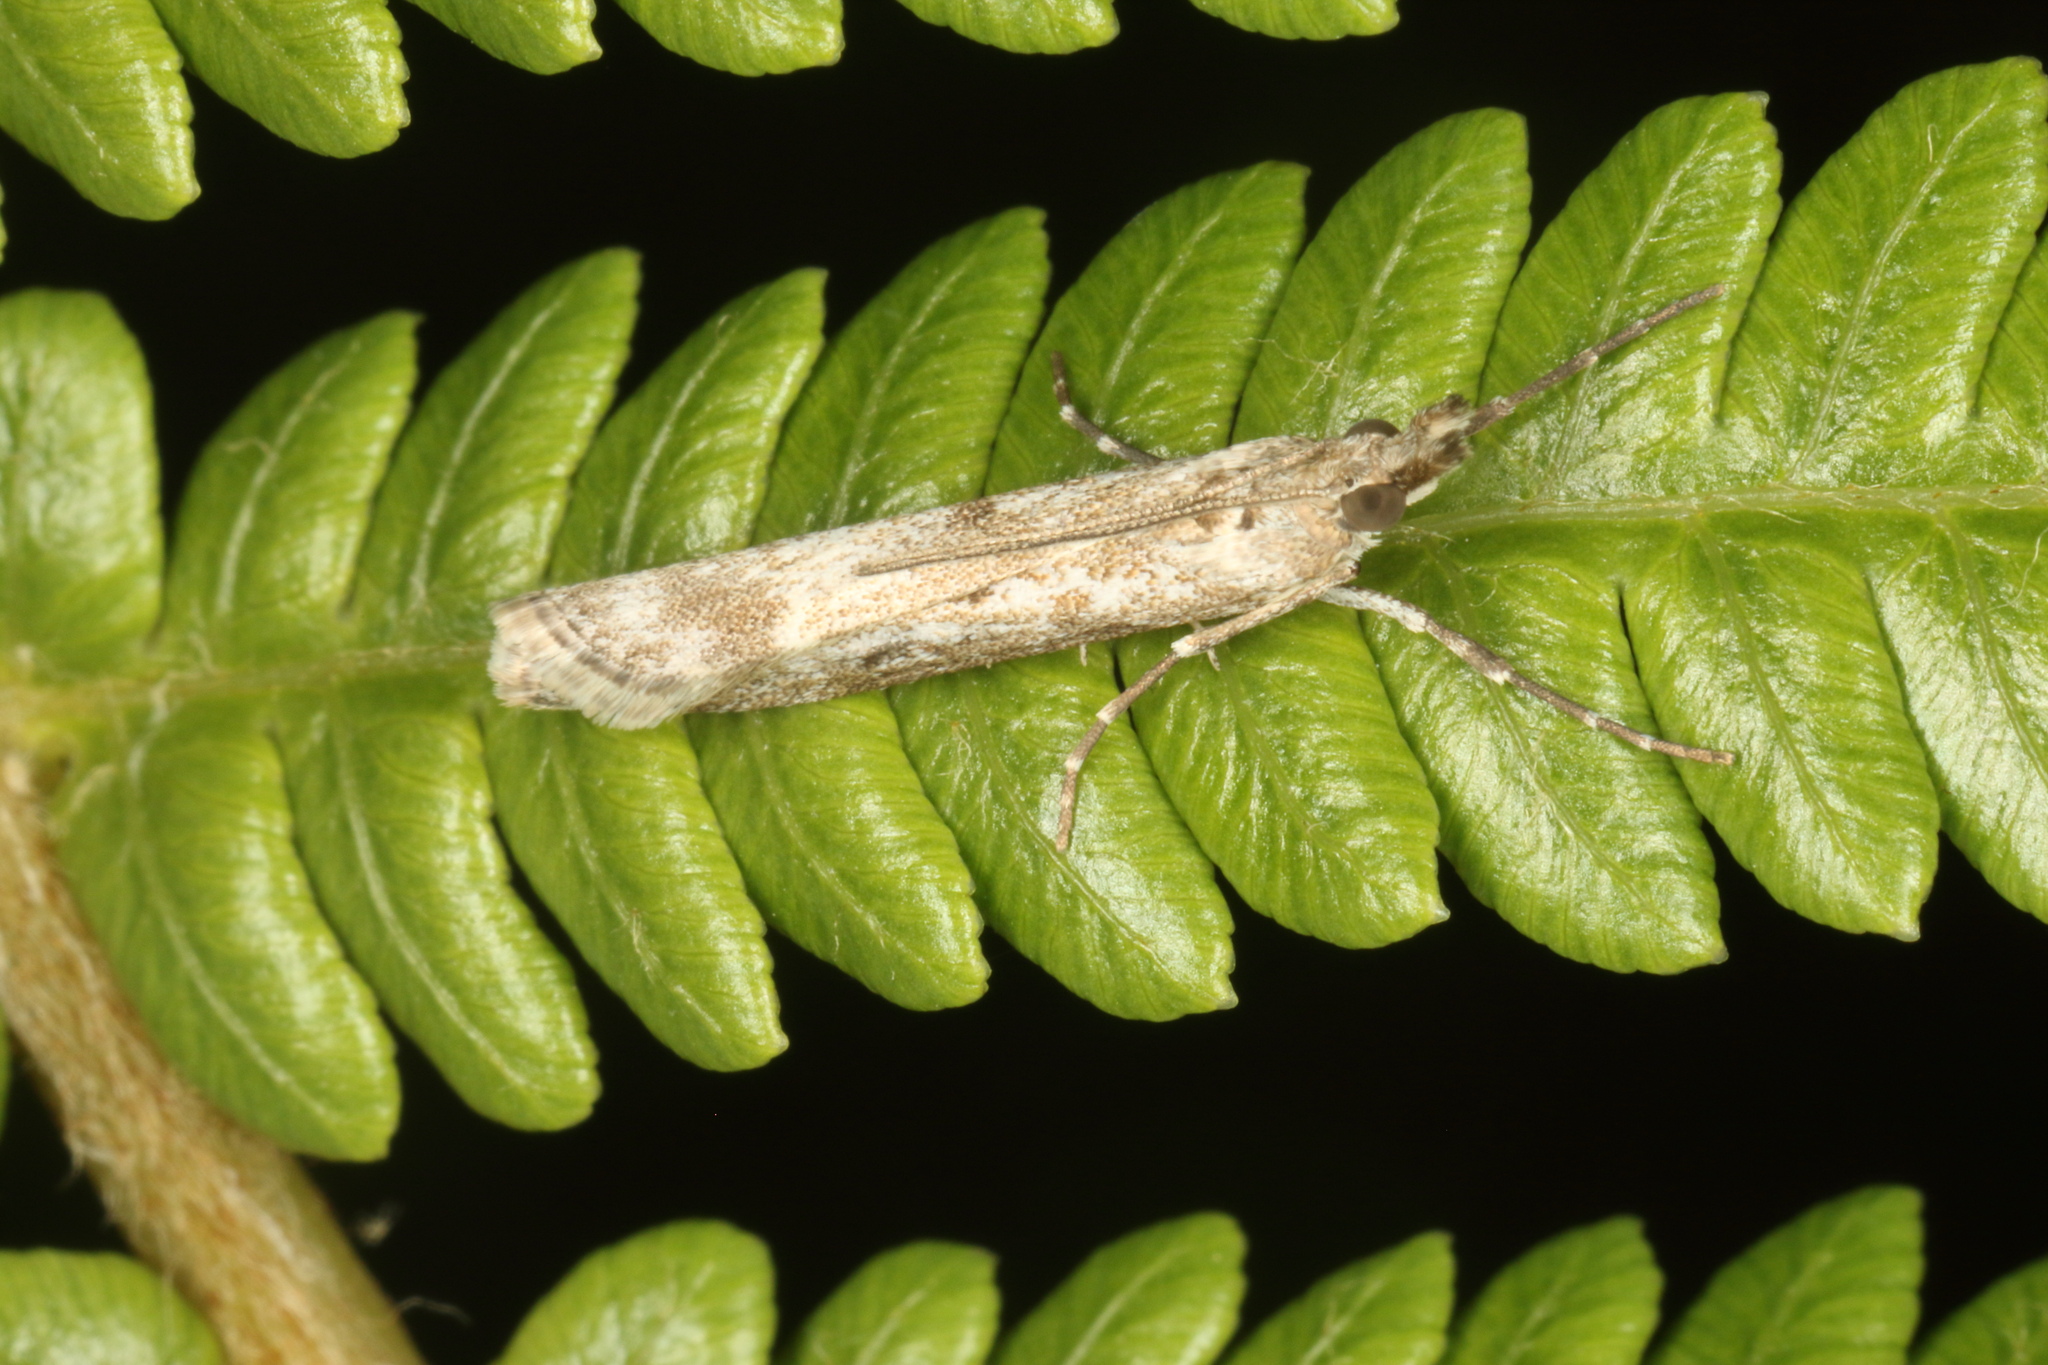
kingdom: Animalia
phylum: Arthropoda
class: Insecta
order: Lepidoptera
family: Crambidae
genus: Eudonia
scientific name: Eudonia leptalea
